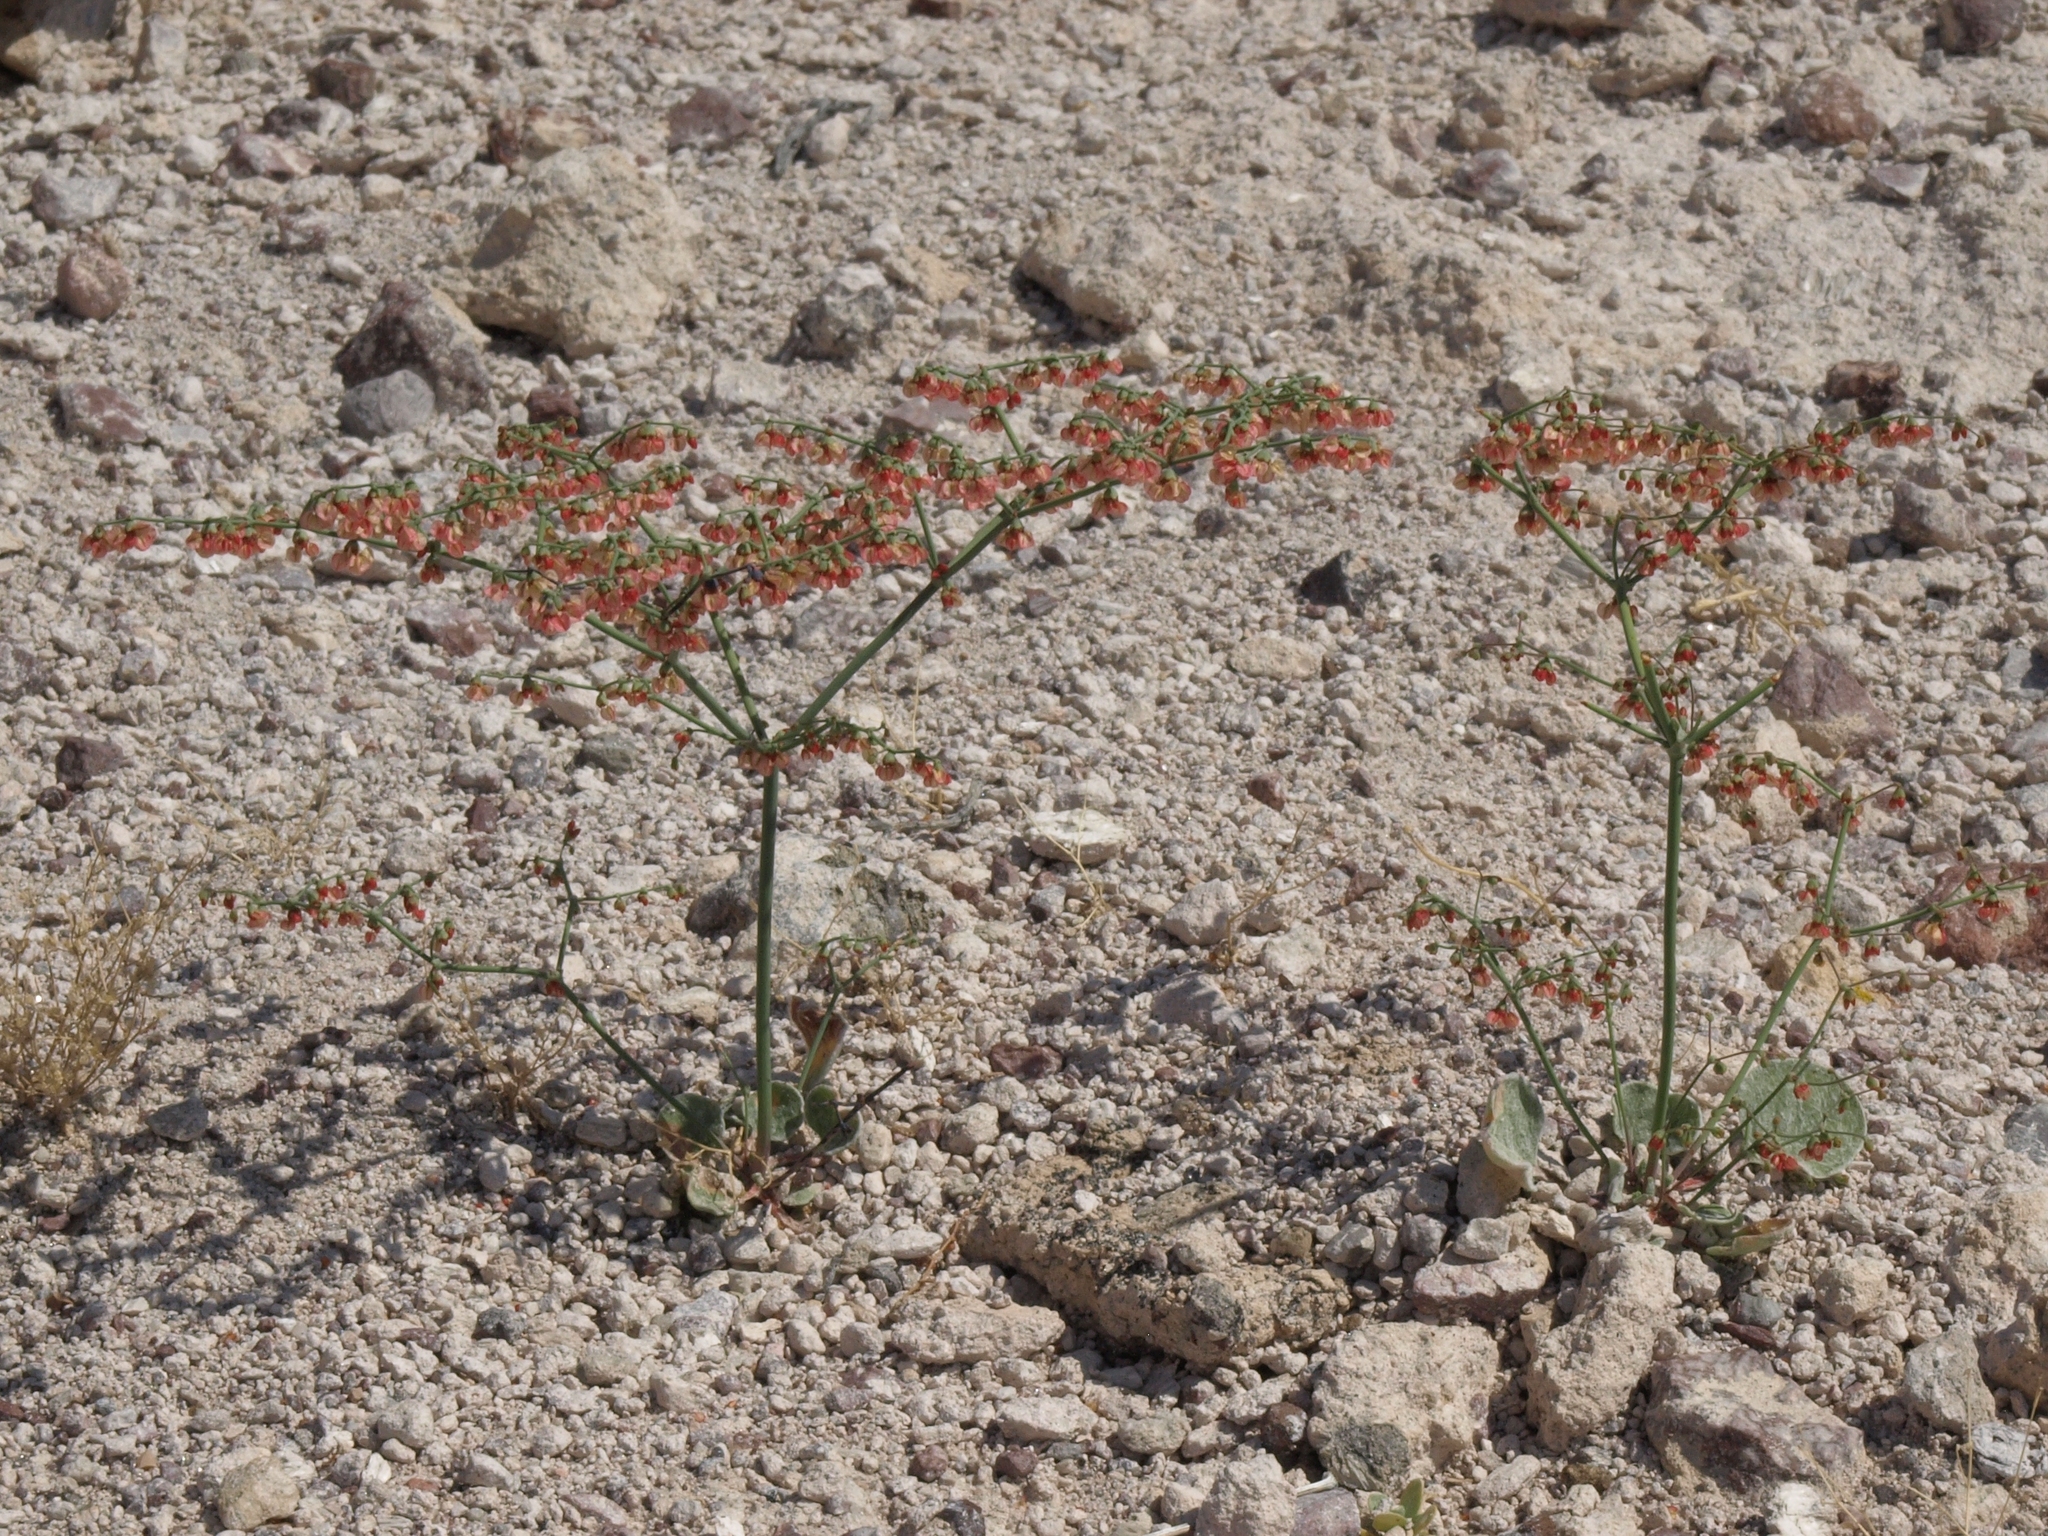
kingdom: Plantae
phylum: Tracheophyta
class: Magnoliopsida
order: Caryophyllales
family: Polygonaceae
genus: Eriogonum
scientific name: Eriogonum hookeri
